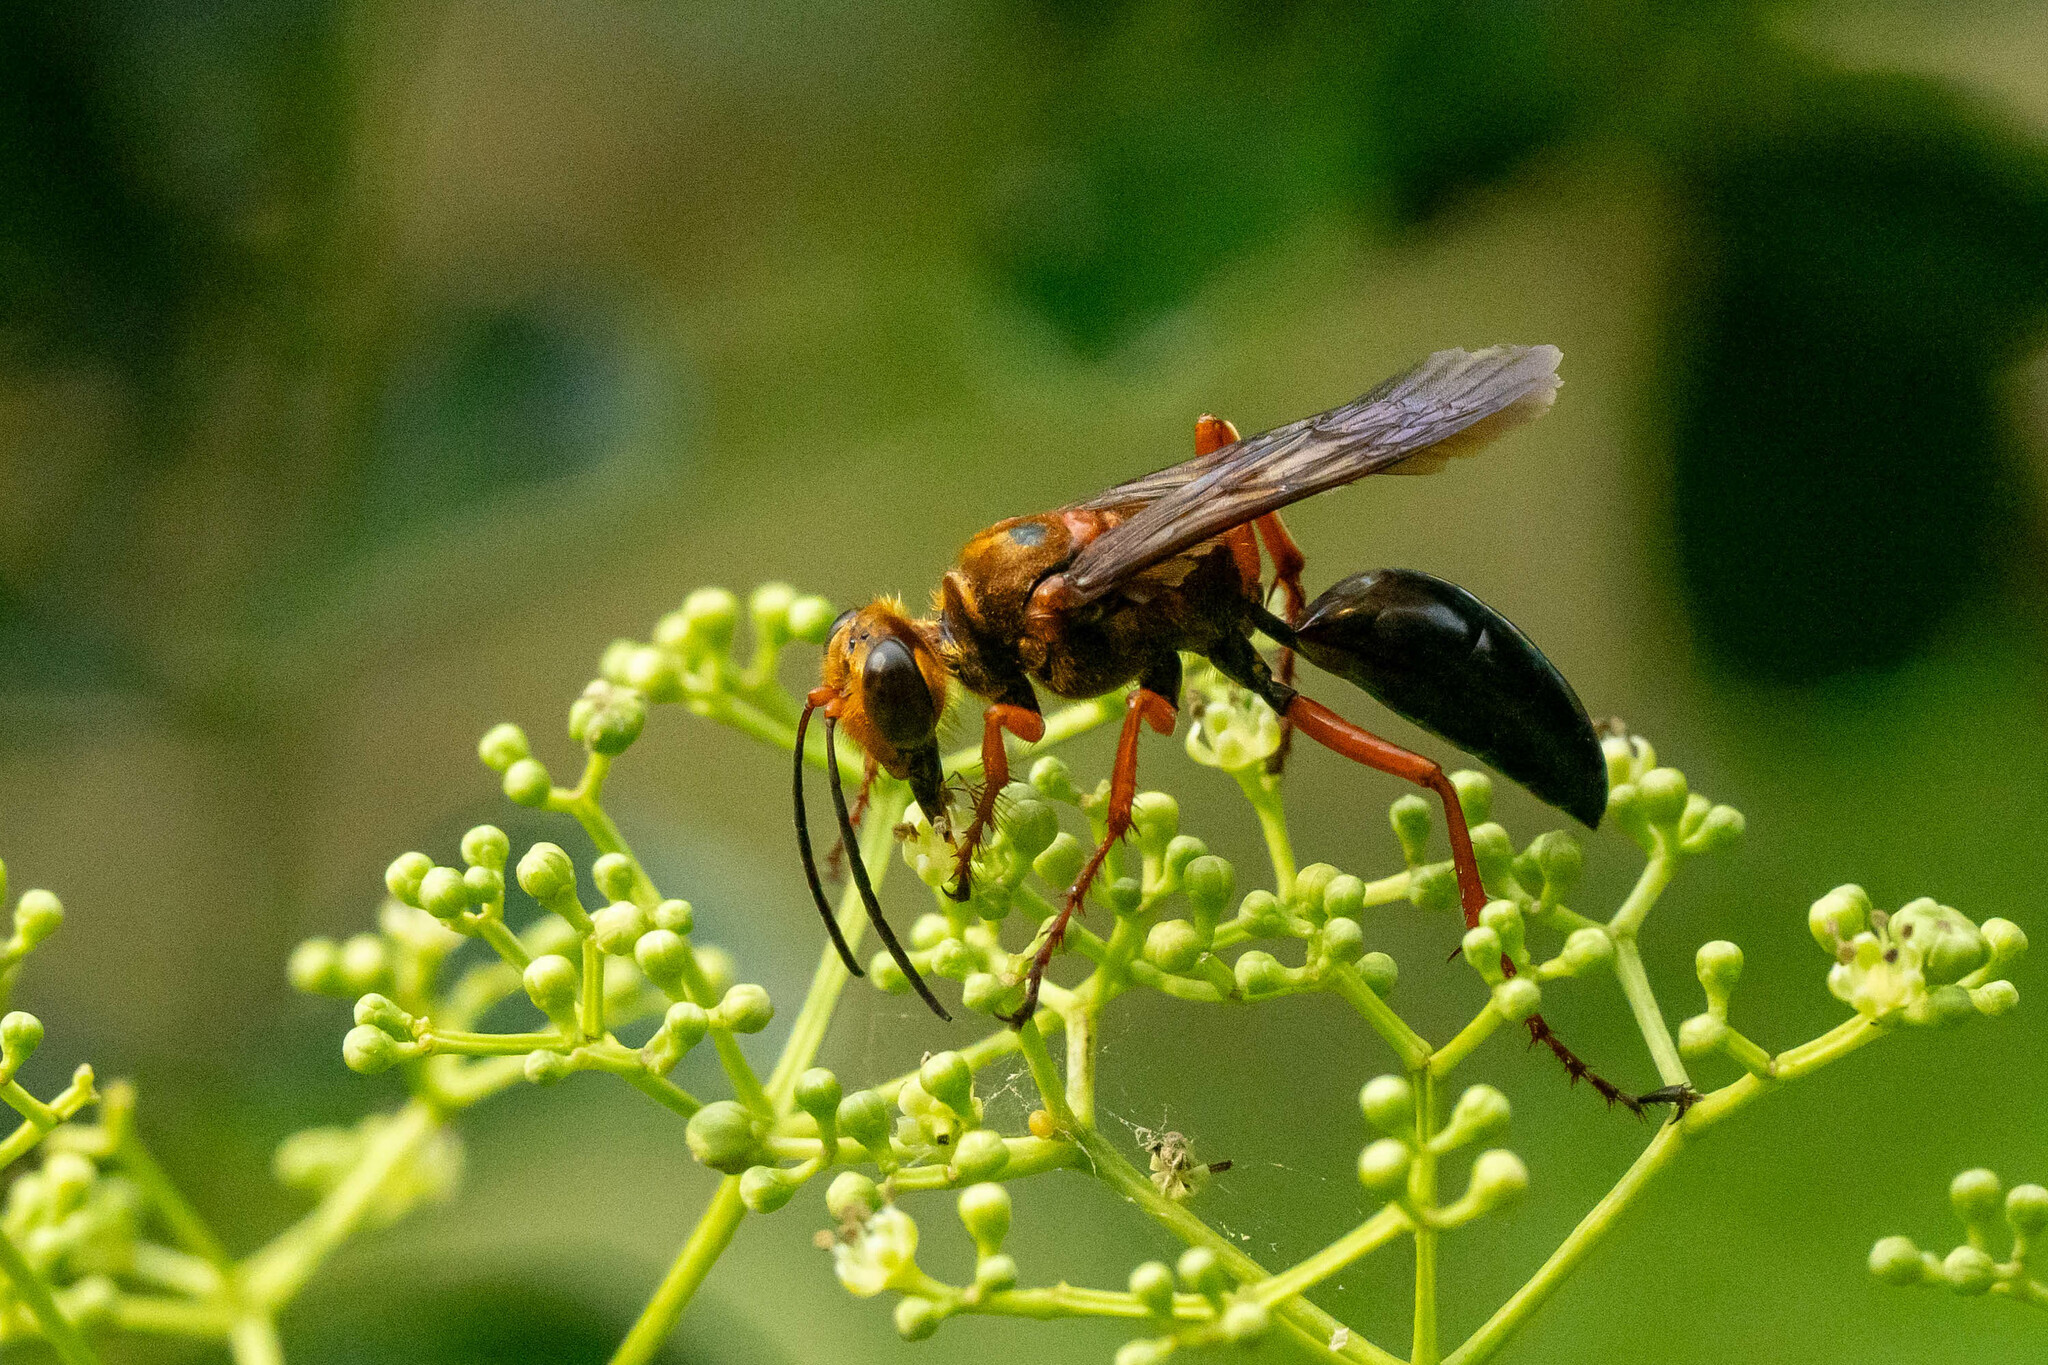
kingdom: Animalia
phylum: Arthropoda
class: Insecta
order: Hymenoptera
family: Sphecidae
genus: Sphex
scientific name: Sphex sericeus
